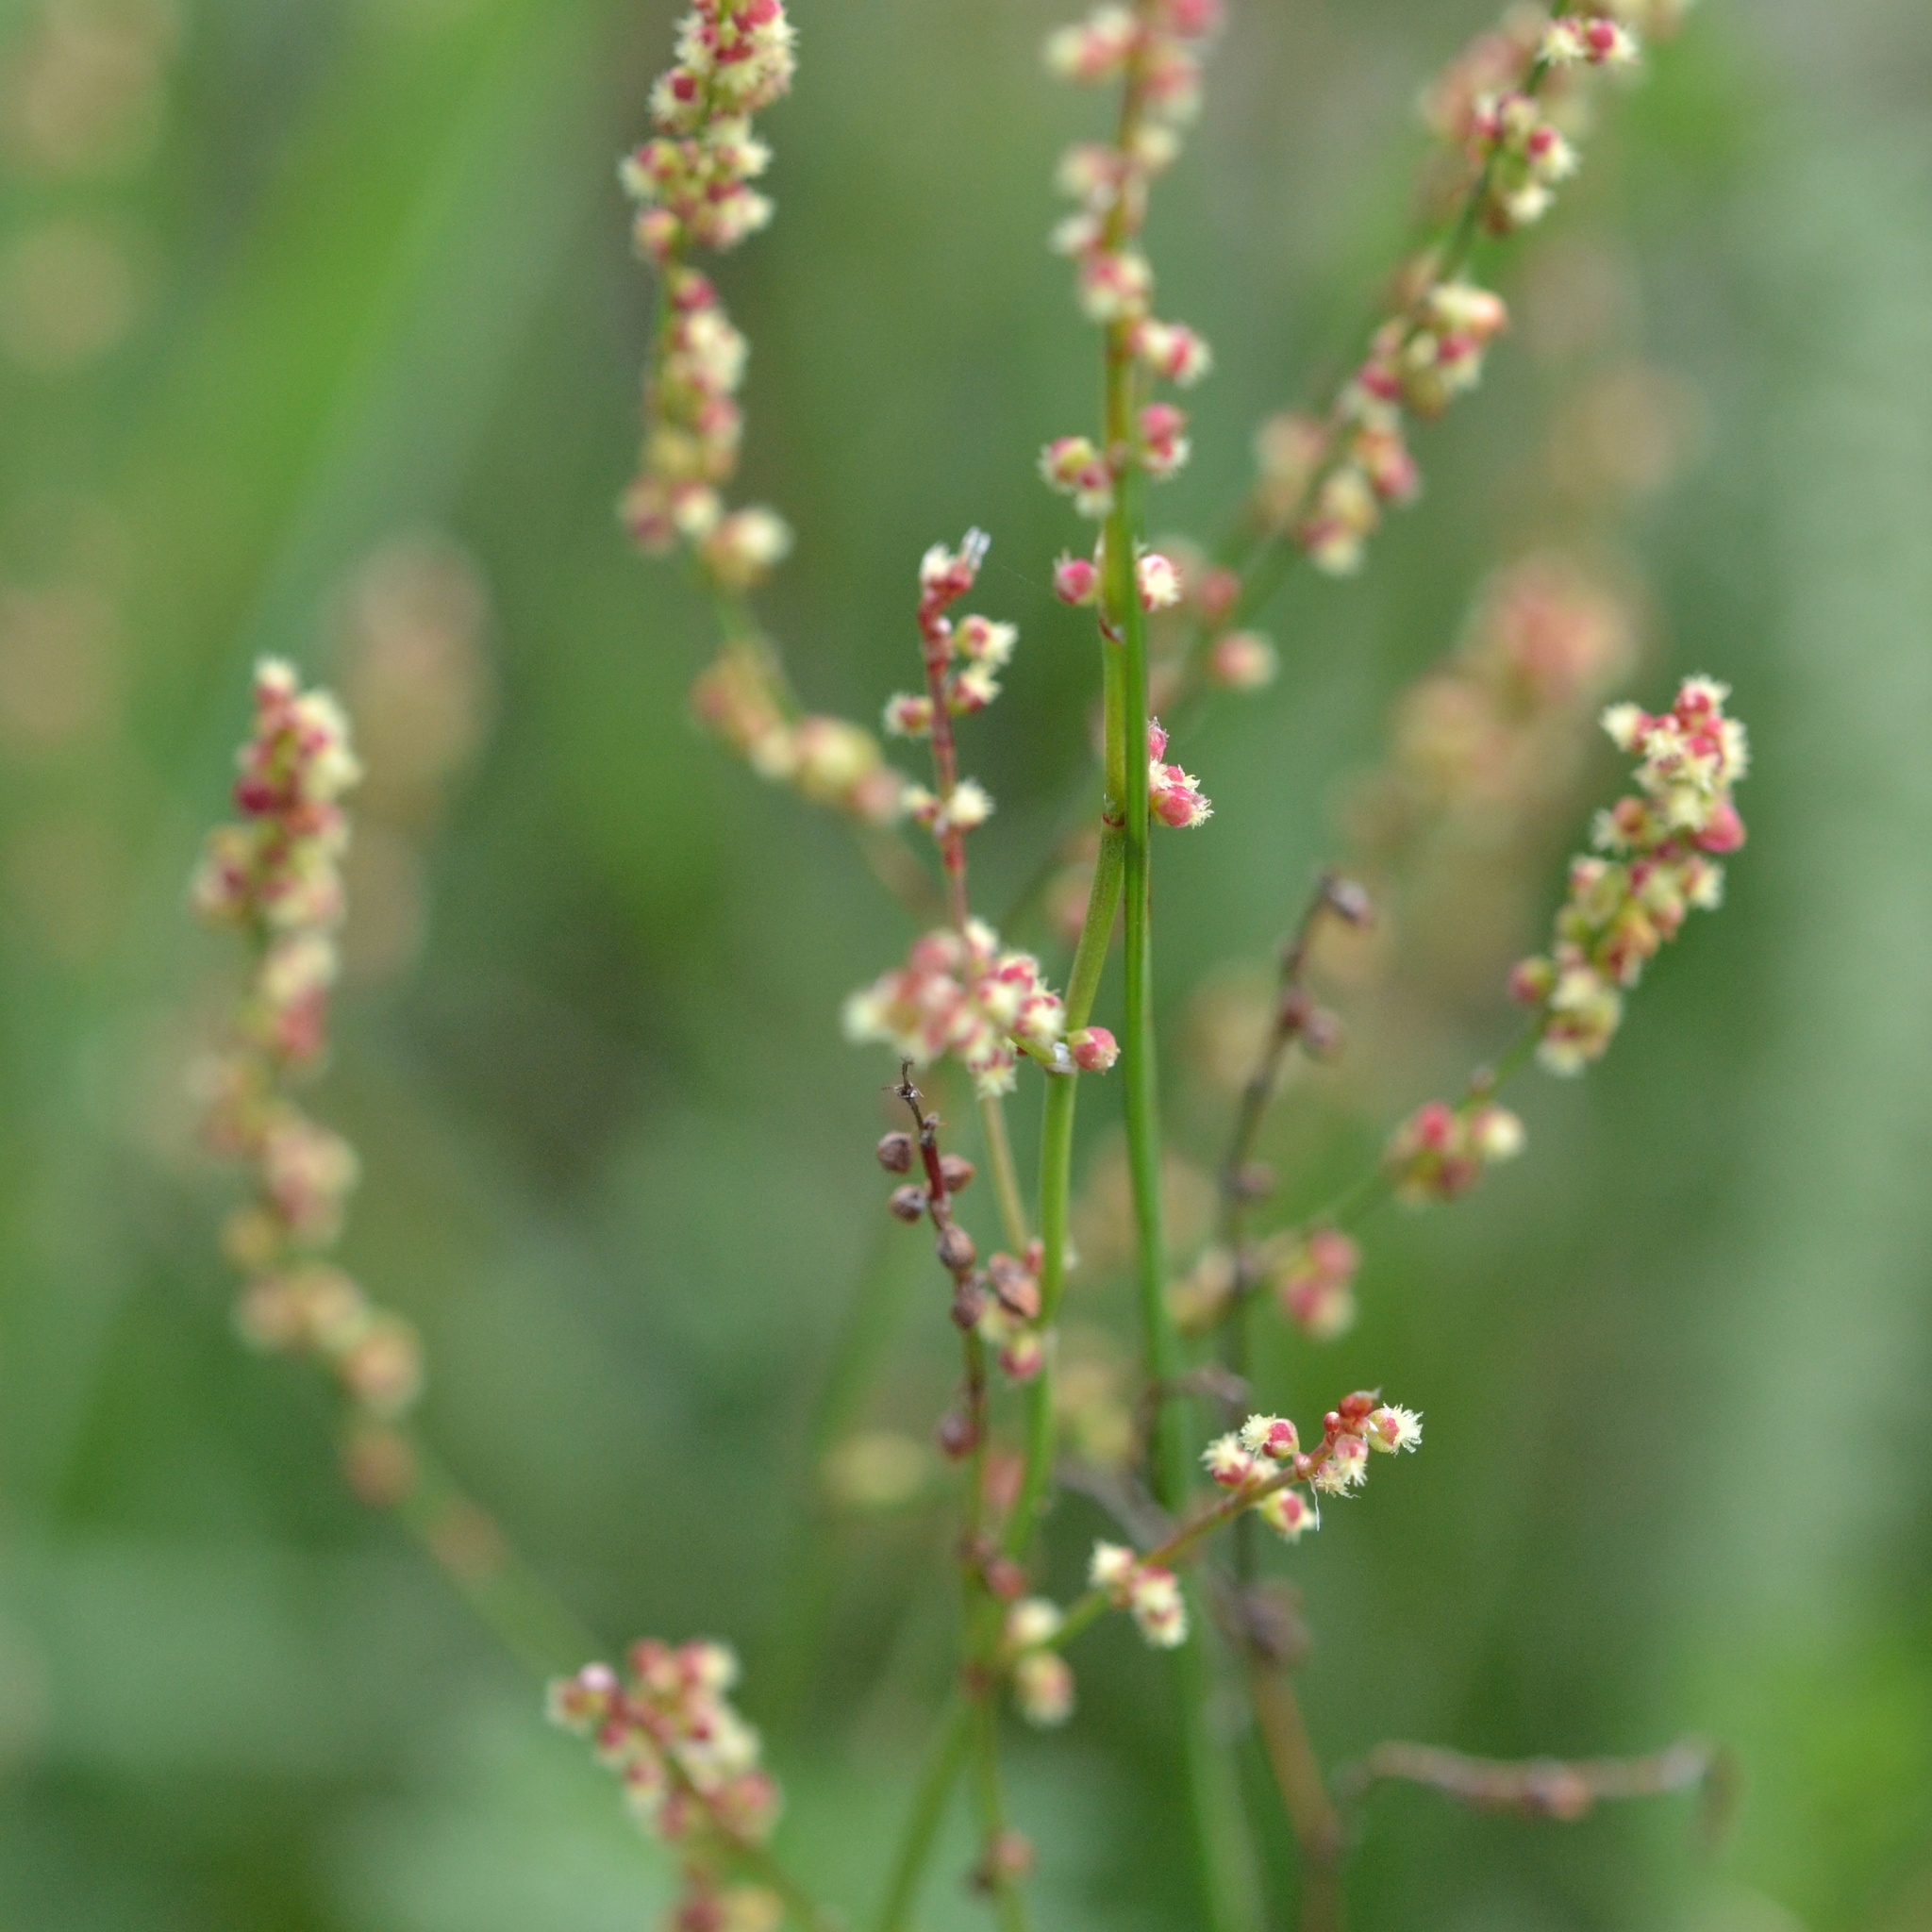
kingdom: Plantae
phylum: Tracheophyta
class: Magnoliopsida
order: Caryophyllales
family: Polygonaceae
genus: Rumex
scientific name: Rumex acetosella
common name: Common sheep sorrel
